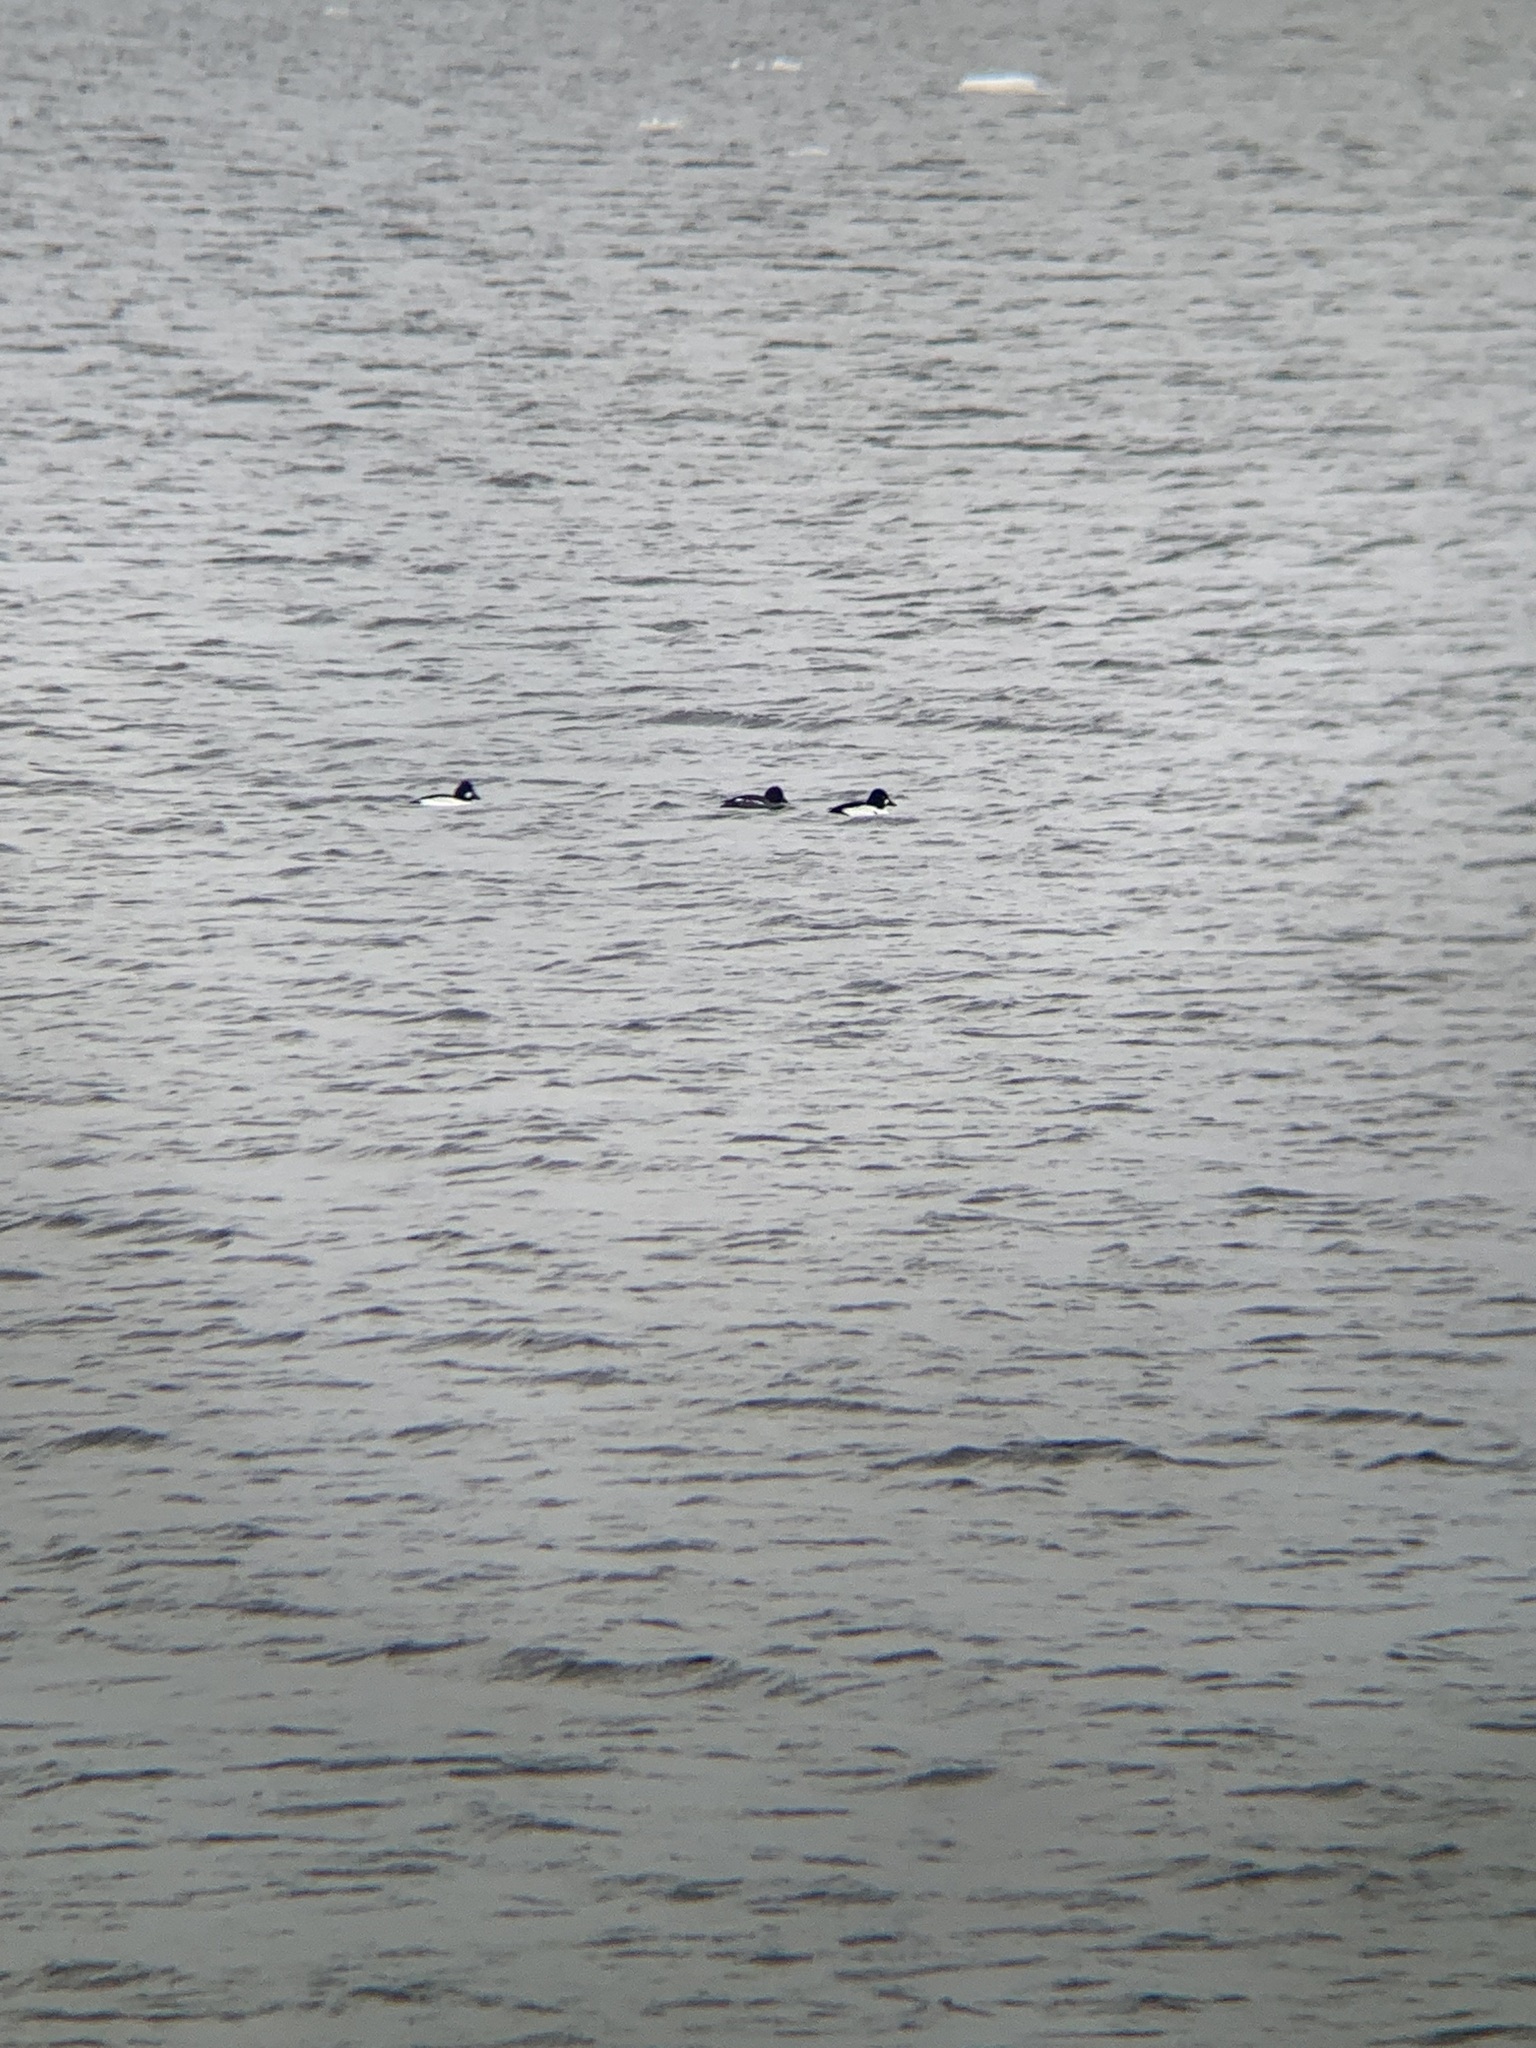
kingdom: Animalia
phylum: Chordata
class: Aves
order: Anseriformes
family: Anatidae
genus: Bucephala
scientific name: Bucephala clangula
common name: Common goldeneye
